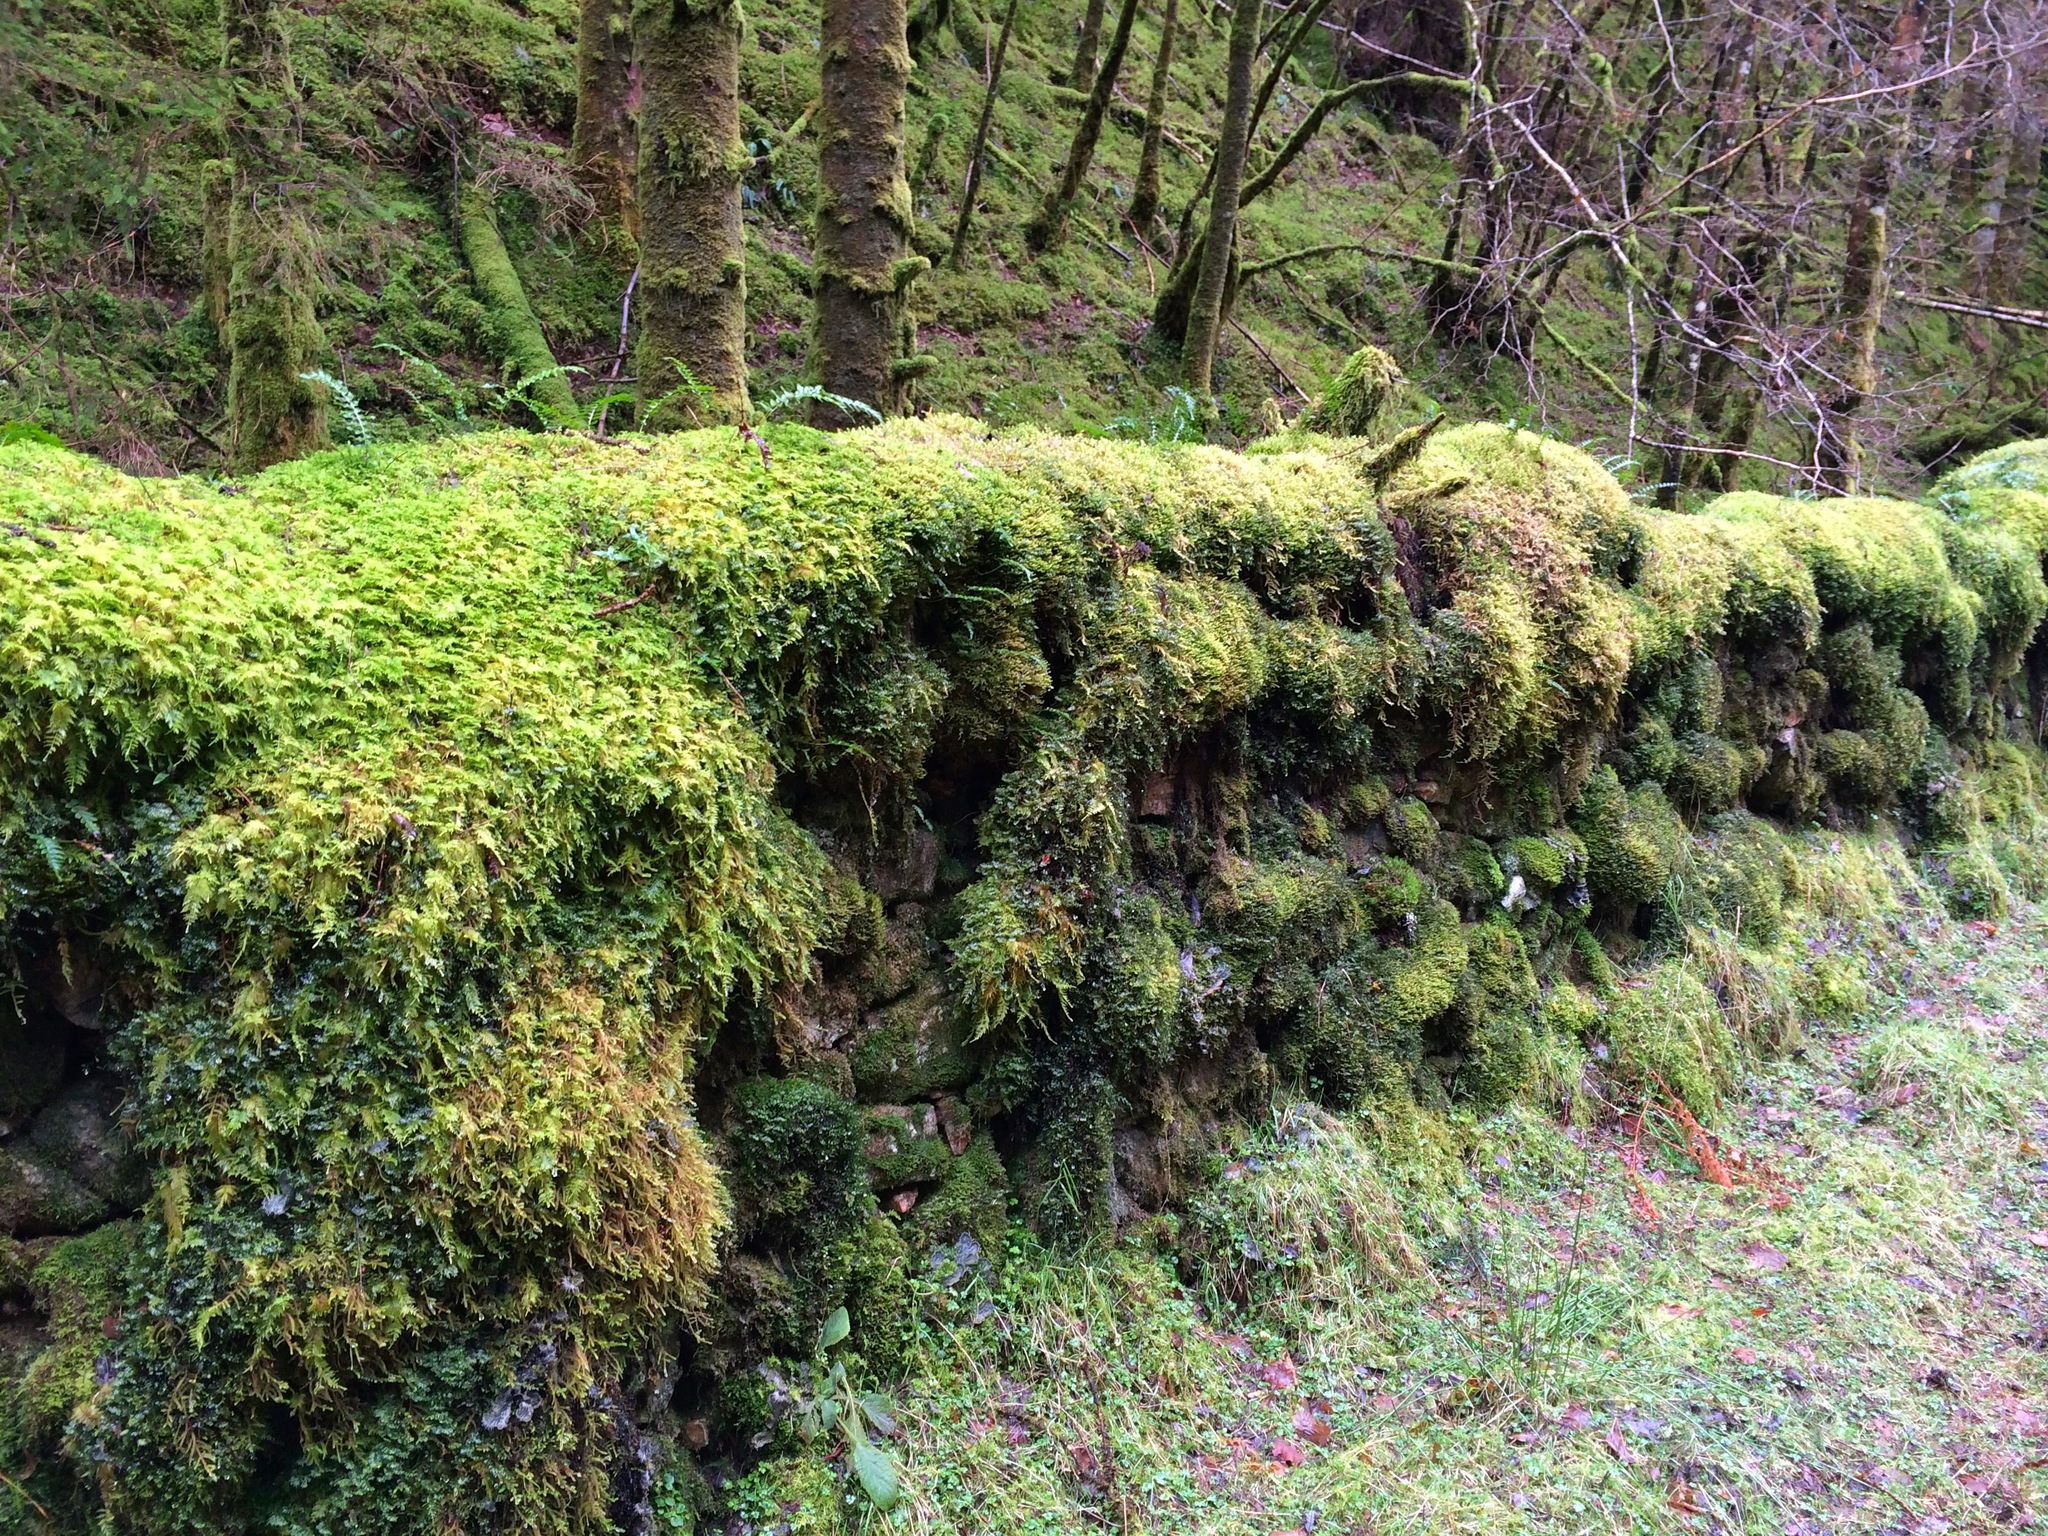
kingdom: Plantae
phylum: Bryophyta
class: Bryopsida
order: Hypnales
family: Thuidiaceae
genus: Thuidium
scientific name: Thuidium tamariscinum
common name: Common tamarisk-moss
